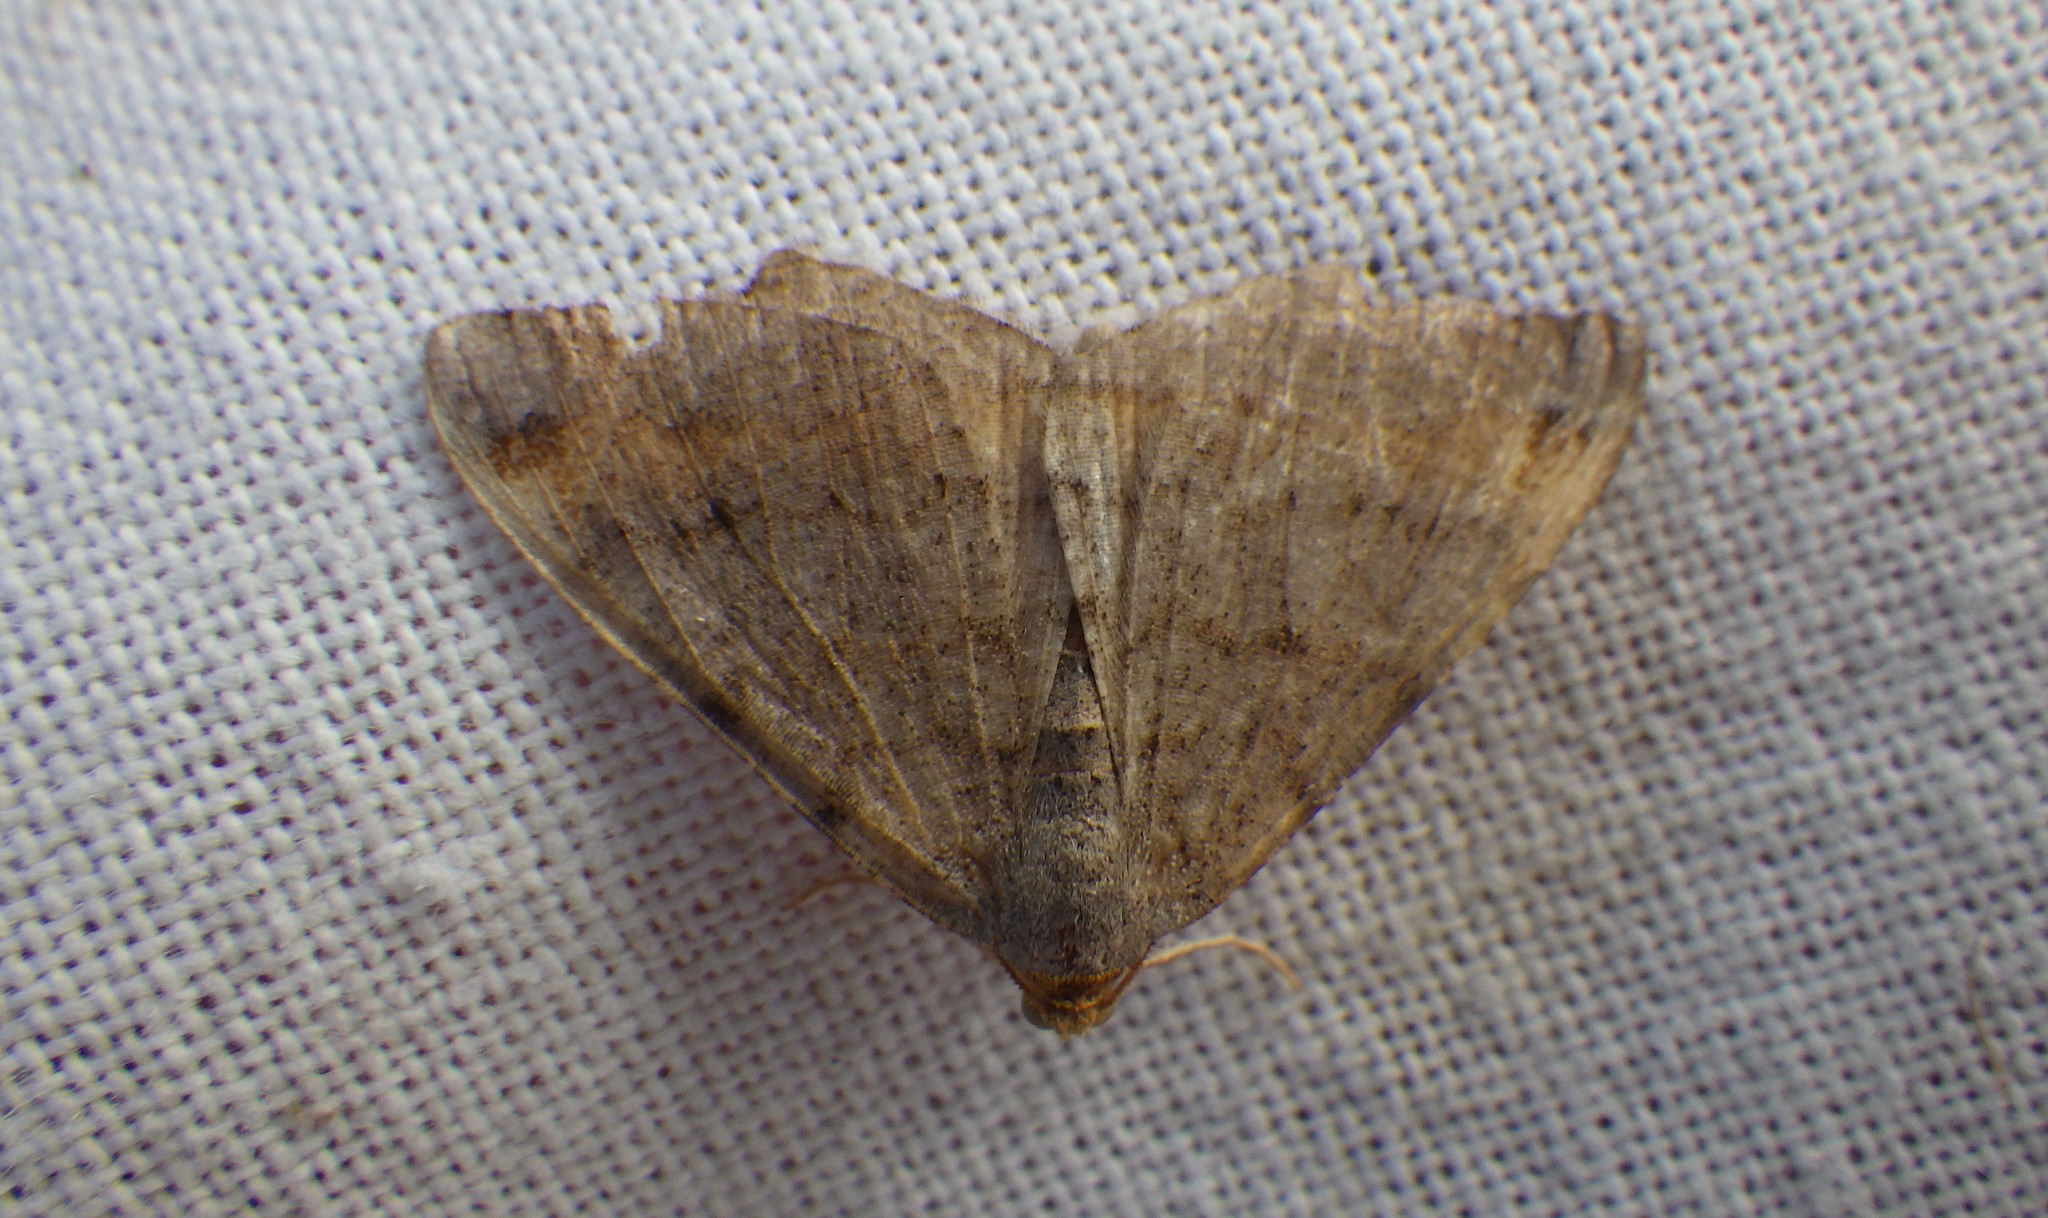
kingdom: Animalia
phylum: Arthropoda
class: Insecta
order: Lepidoptera
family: Geometridae
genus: Macaria
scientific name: Macaria liturata
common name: Tawny-barred angle
